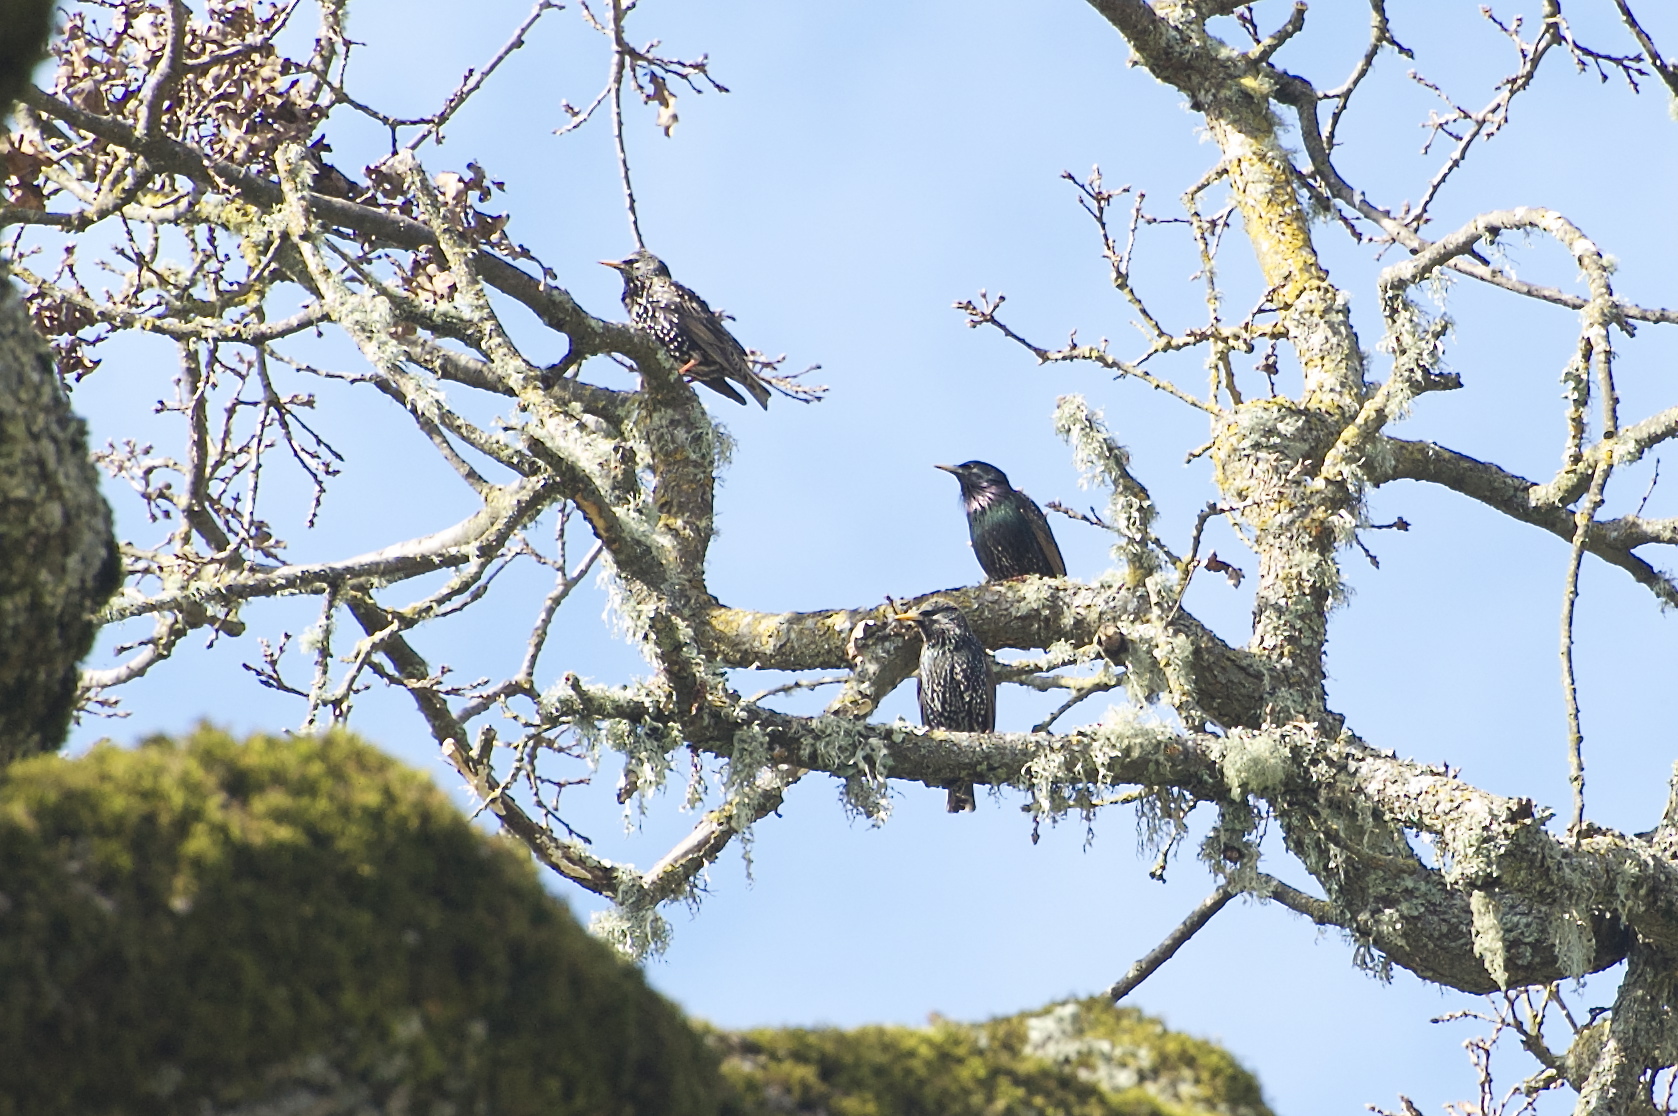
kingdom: Animalia
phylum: Chordata
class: Aves
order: Passeriformes
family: Sturnidae
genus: Sturnus
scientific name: Sturnus vulgaris
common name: Common starling
